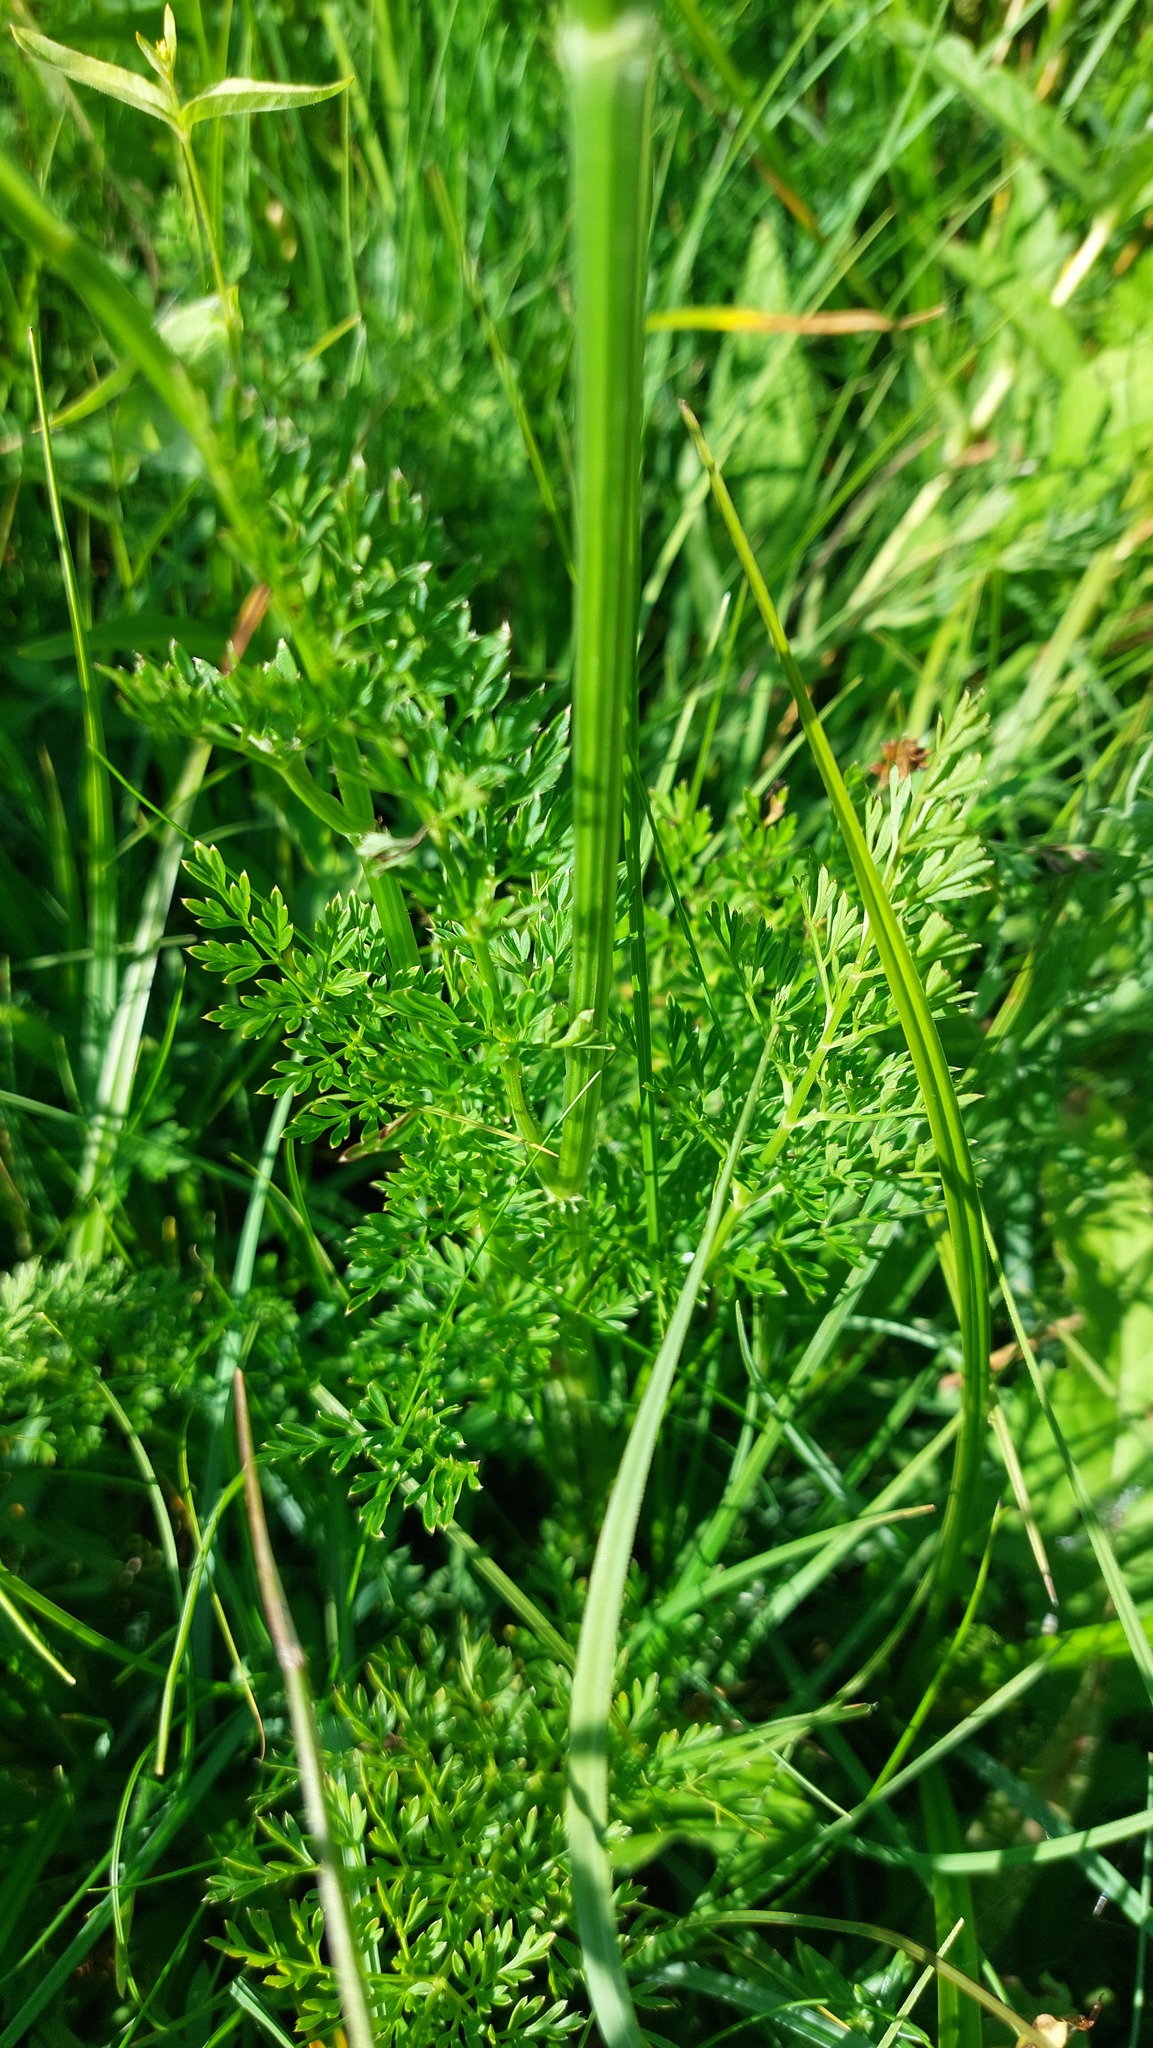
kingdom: Plantae
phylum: Tracheophyta
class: Magnoliopsida
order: Apiales
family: Apiaceae
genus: Selinum
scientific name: Selinum carvifolia
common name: Cambridge milk-parsley
